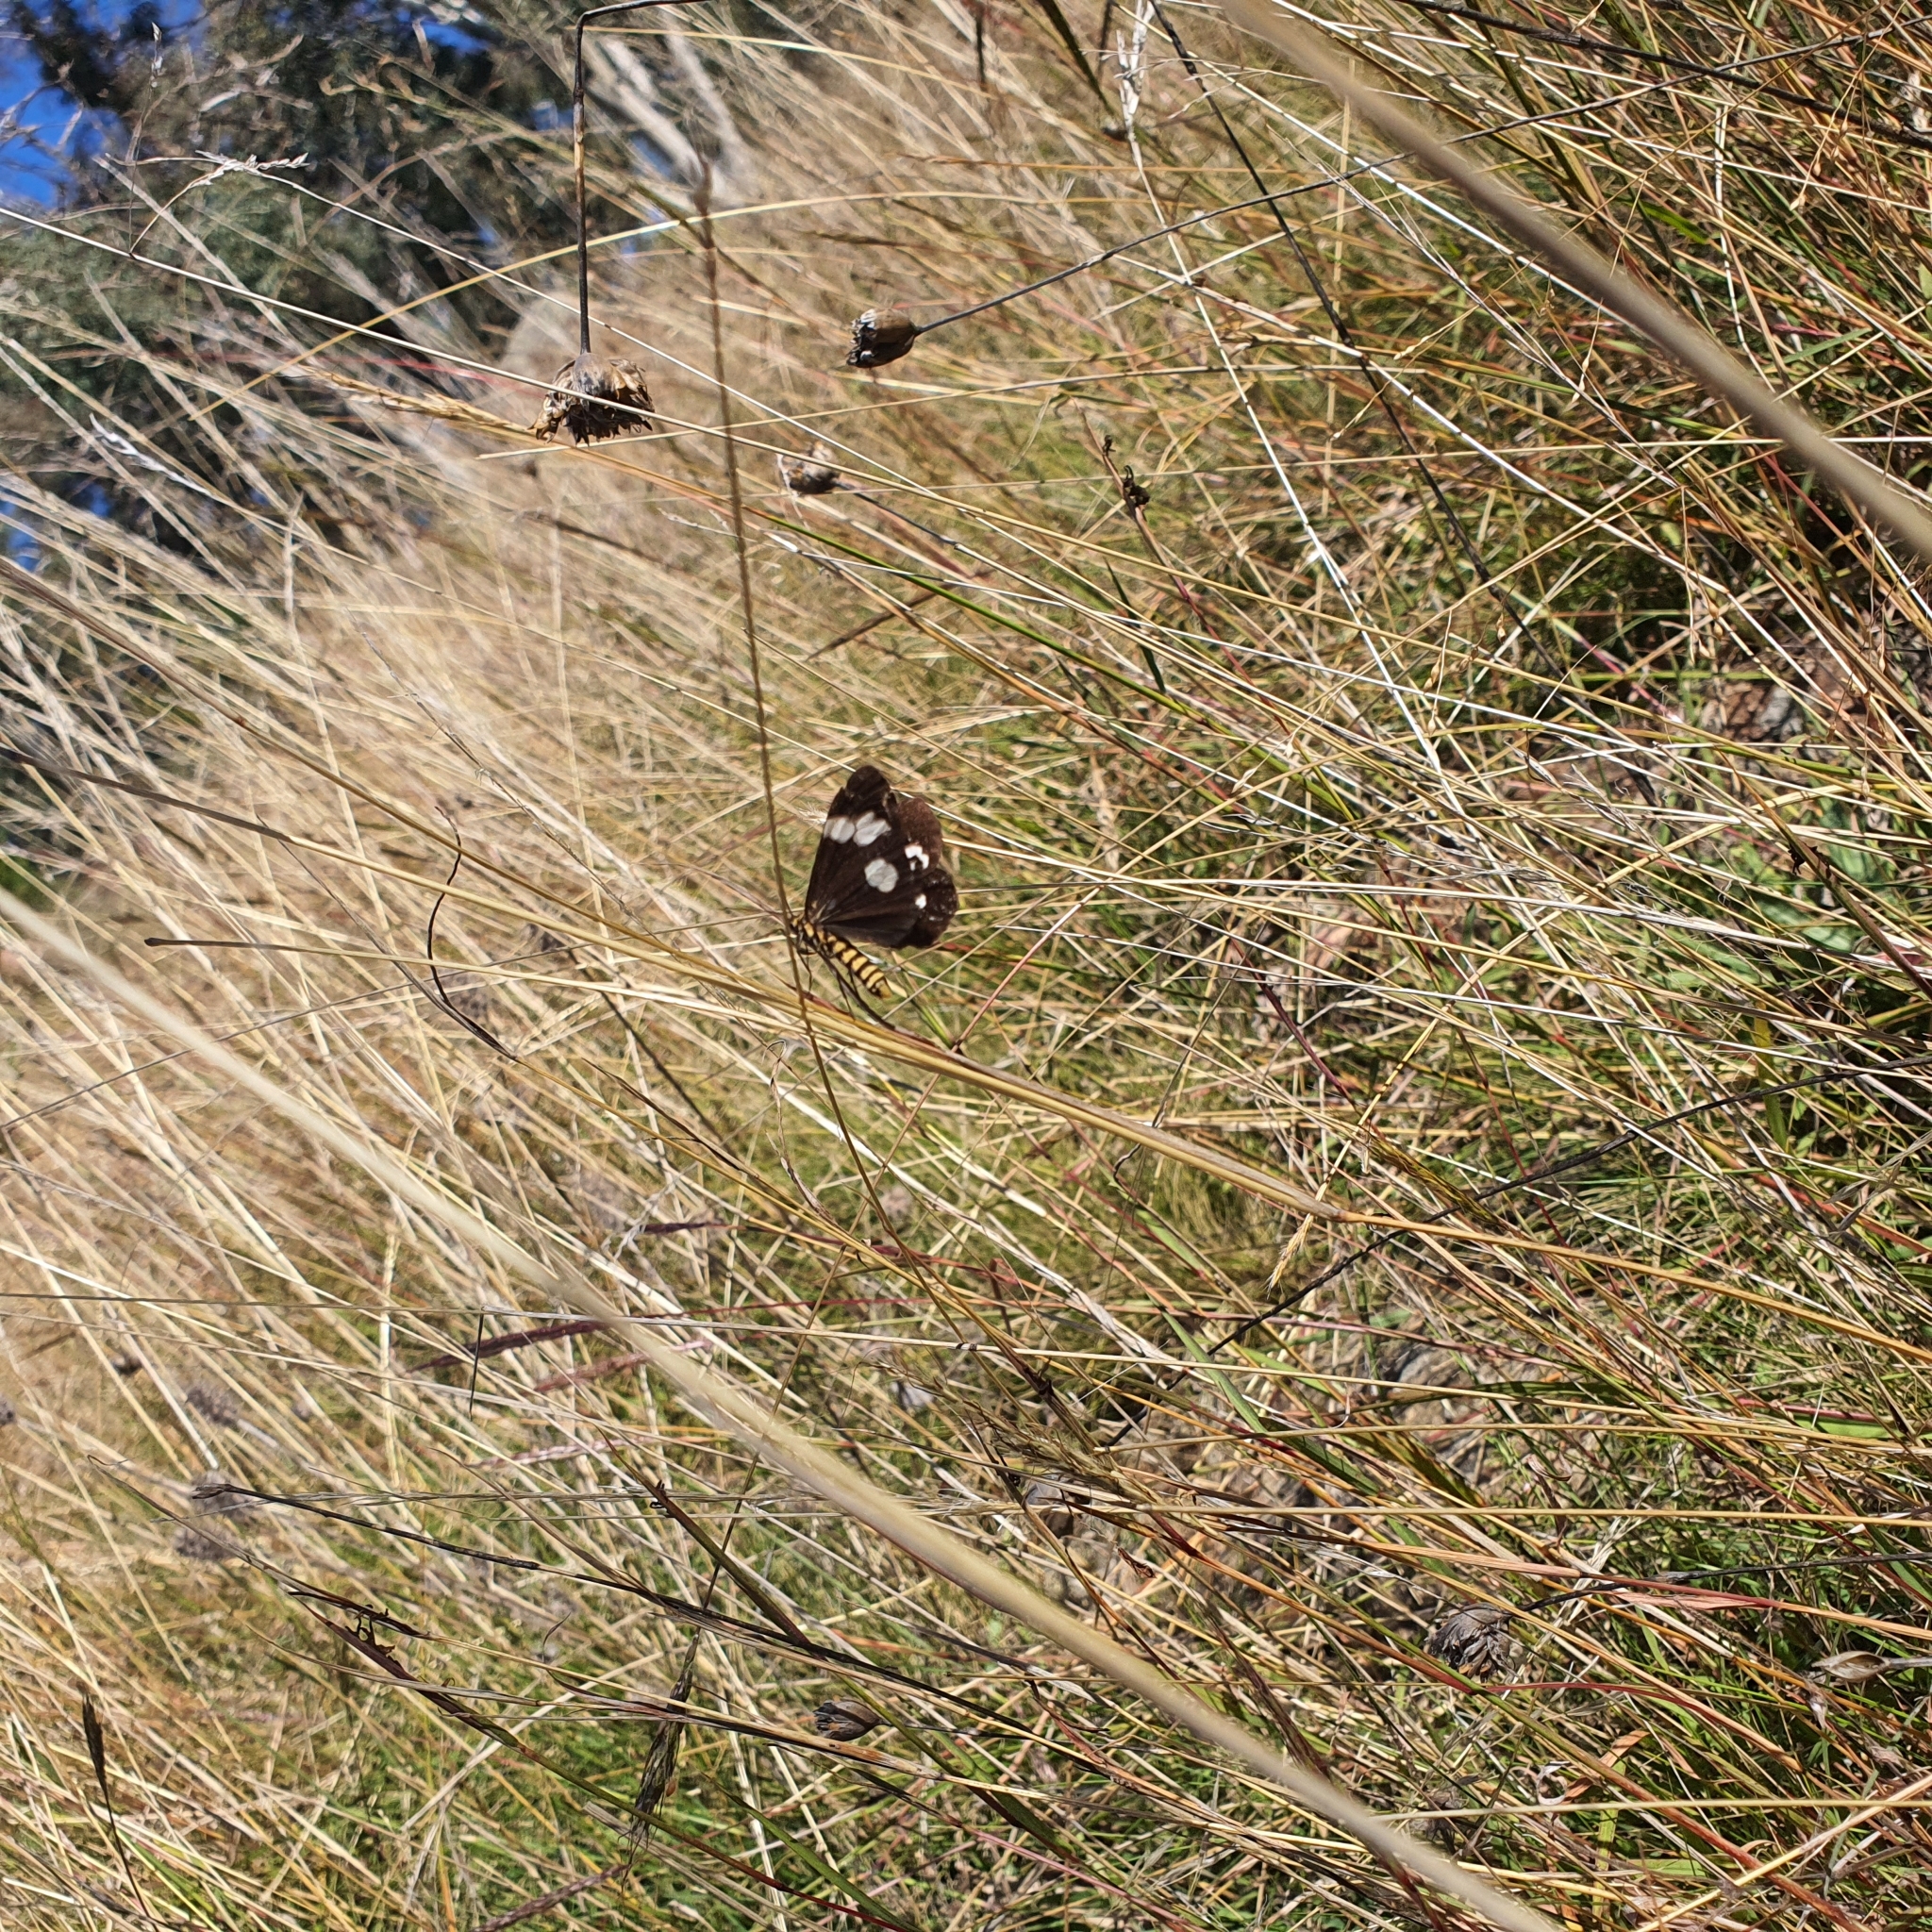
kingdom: Animalia
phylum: Arthropoda
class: Insecta
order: Lepidoptera
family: Erebidae
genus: Nyctemera
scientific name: Nyctemera amicus
